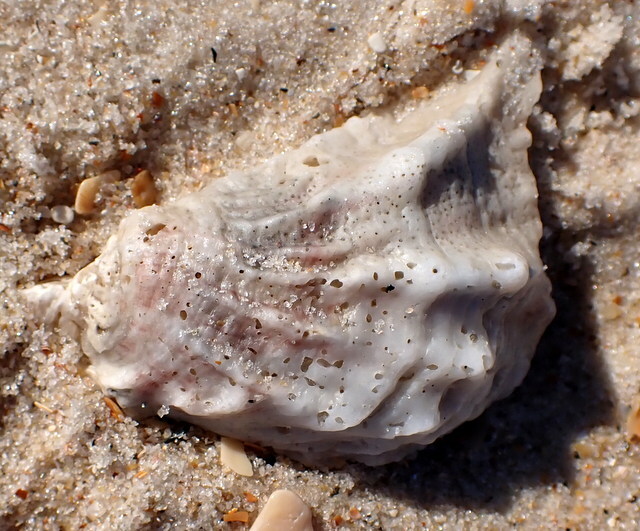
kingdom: Animalia
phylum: Mollusca
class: Bivalvia
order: Ostreida
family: Ostreidae
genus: Crassostrea
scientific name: Crassostrea virginica
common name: American oyster
